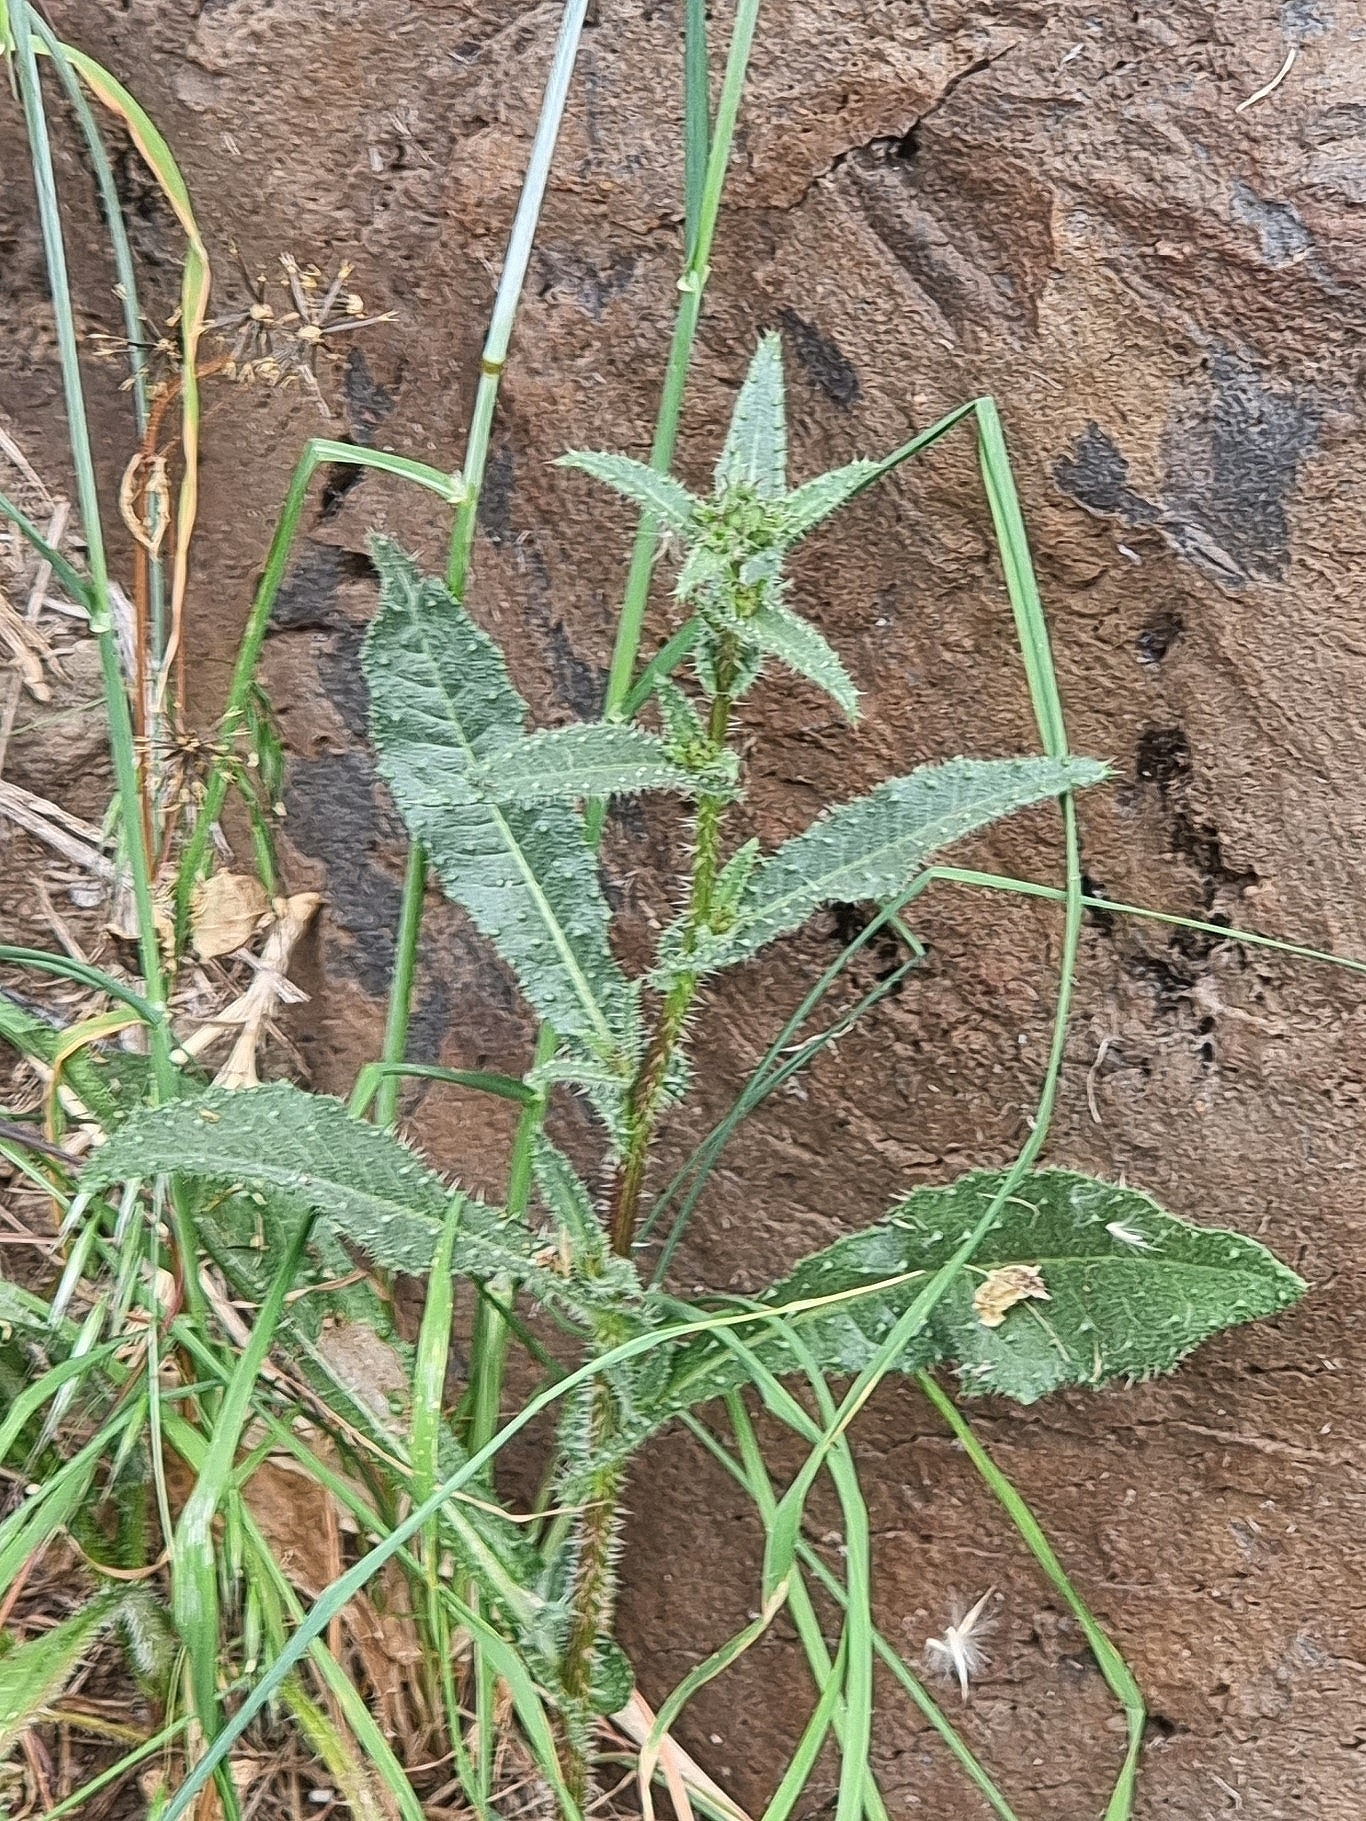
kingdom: Plantae
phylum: Tracheophyta
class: Magnoliopsida
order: Asterales
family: Asteraceae
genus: Helminthotheca
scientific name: Helminthotheca echioides
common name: Ox-tongue
